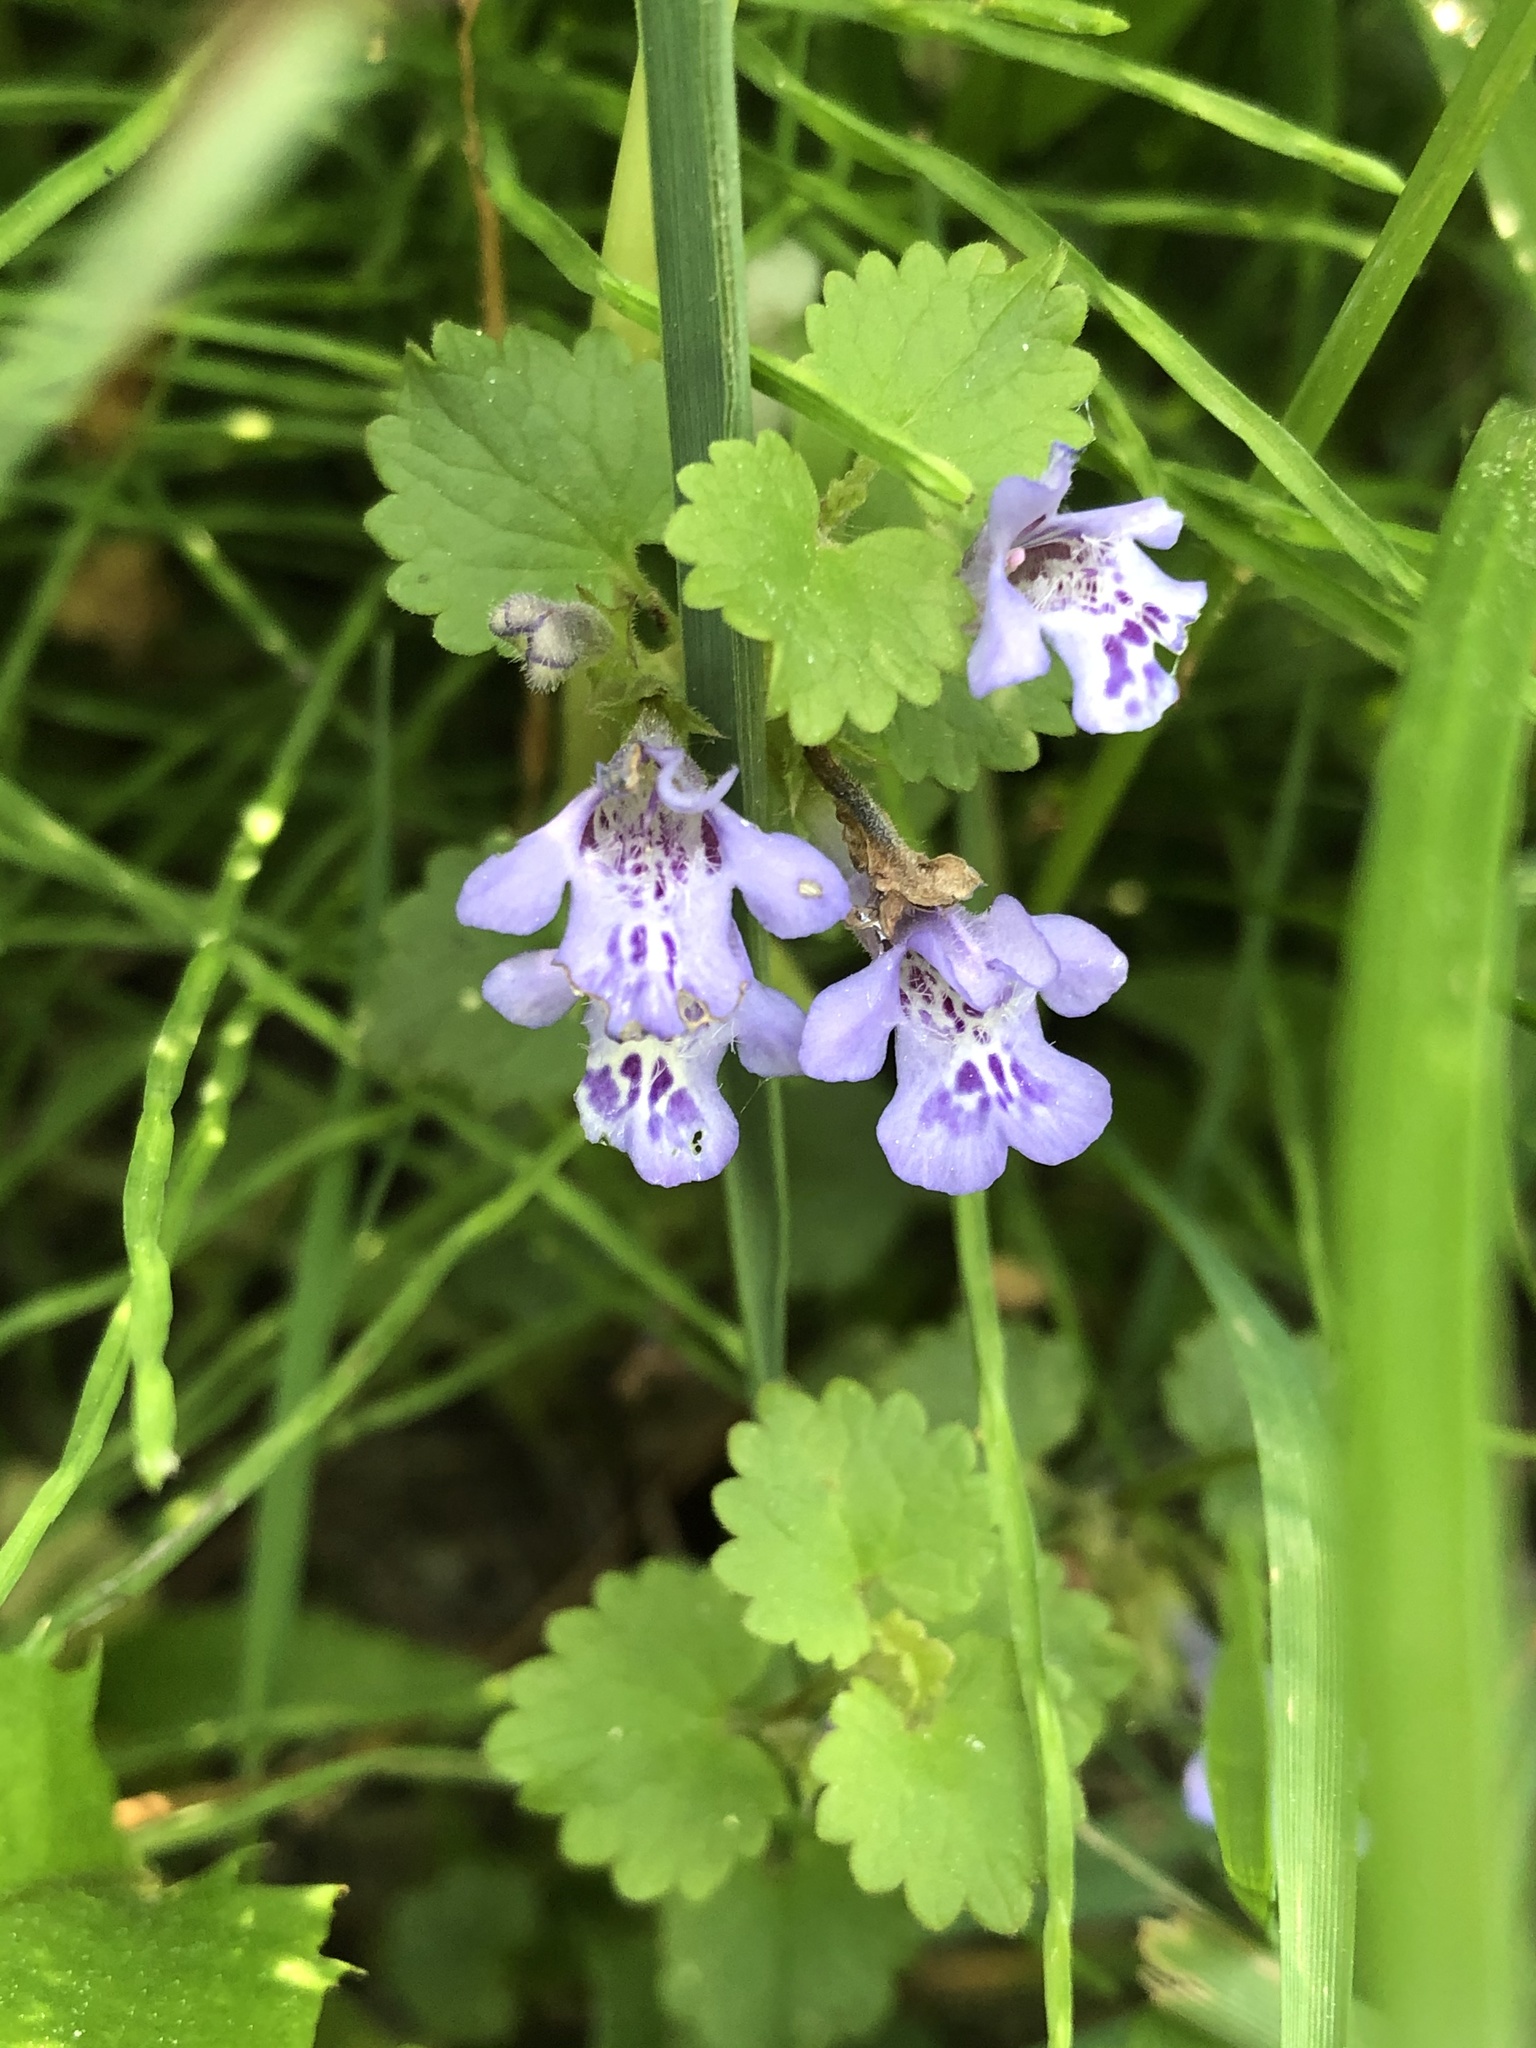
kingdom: Plantae
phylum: Tracheophyta
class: Magnoliopsida
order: Lamiales
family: Lamiaceae
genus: Glechoma
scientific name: Glechoma hederacea
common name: Ground ivy
